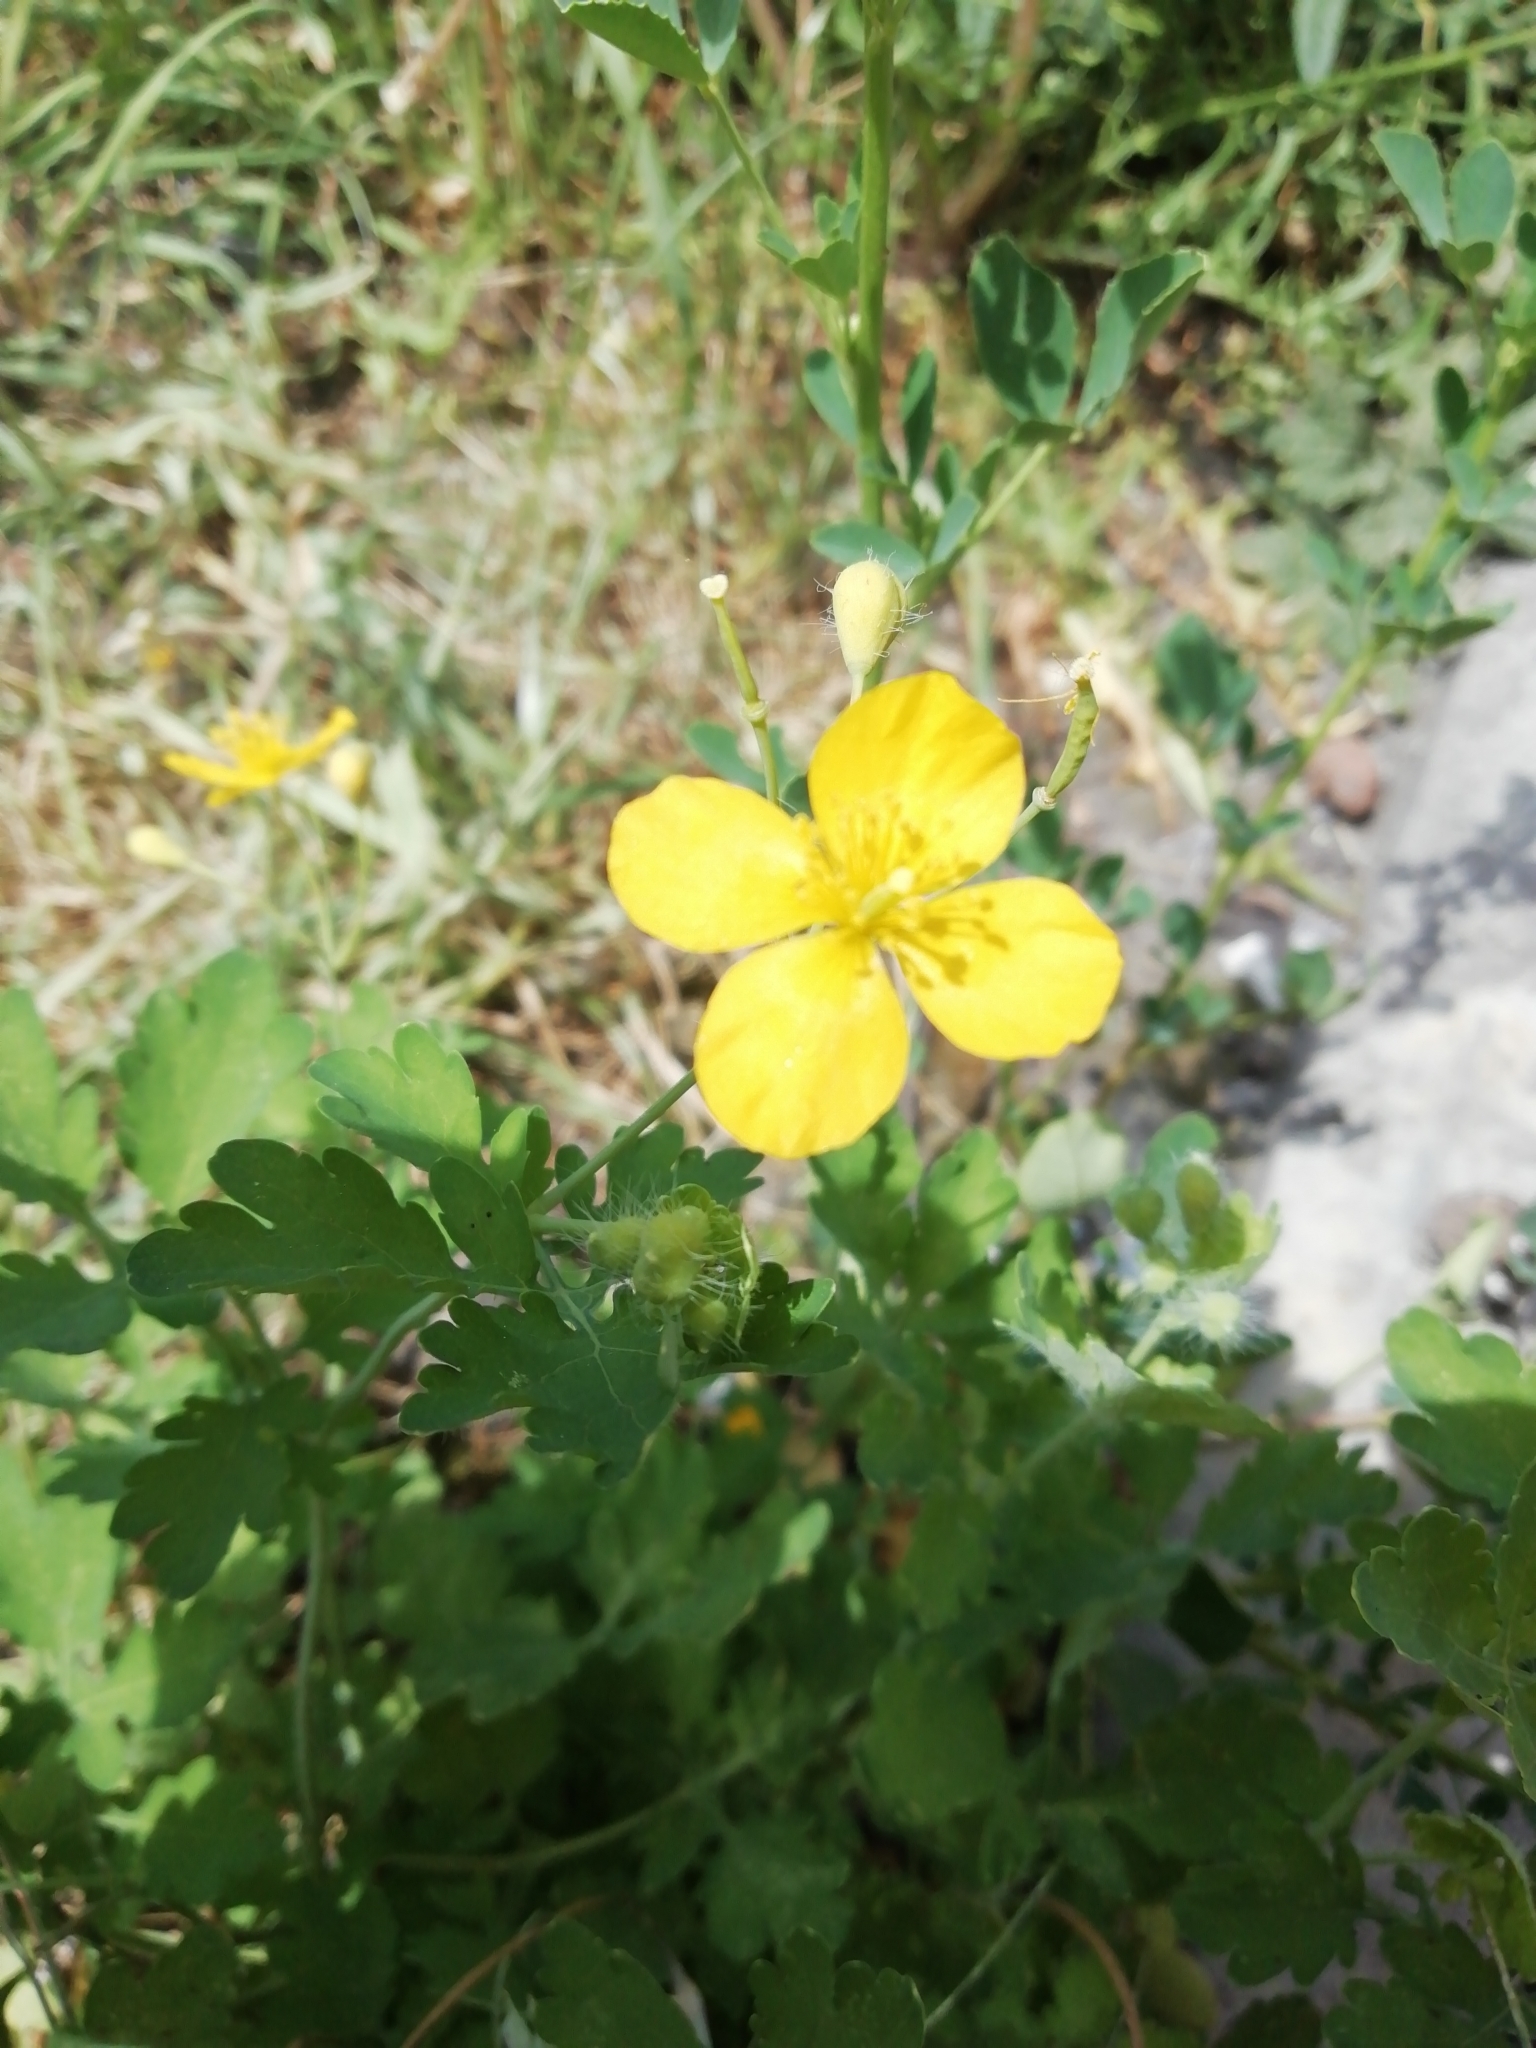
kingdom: Plantae
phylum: Tracheophyta
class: Magnoliopsida
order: Ranunculales
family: Papaveraceae
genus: Chelidonium
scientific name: Chelidonium majus
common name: Greater celandine
